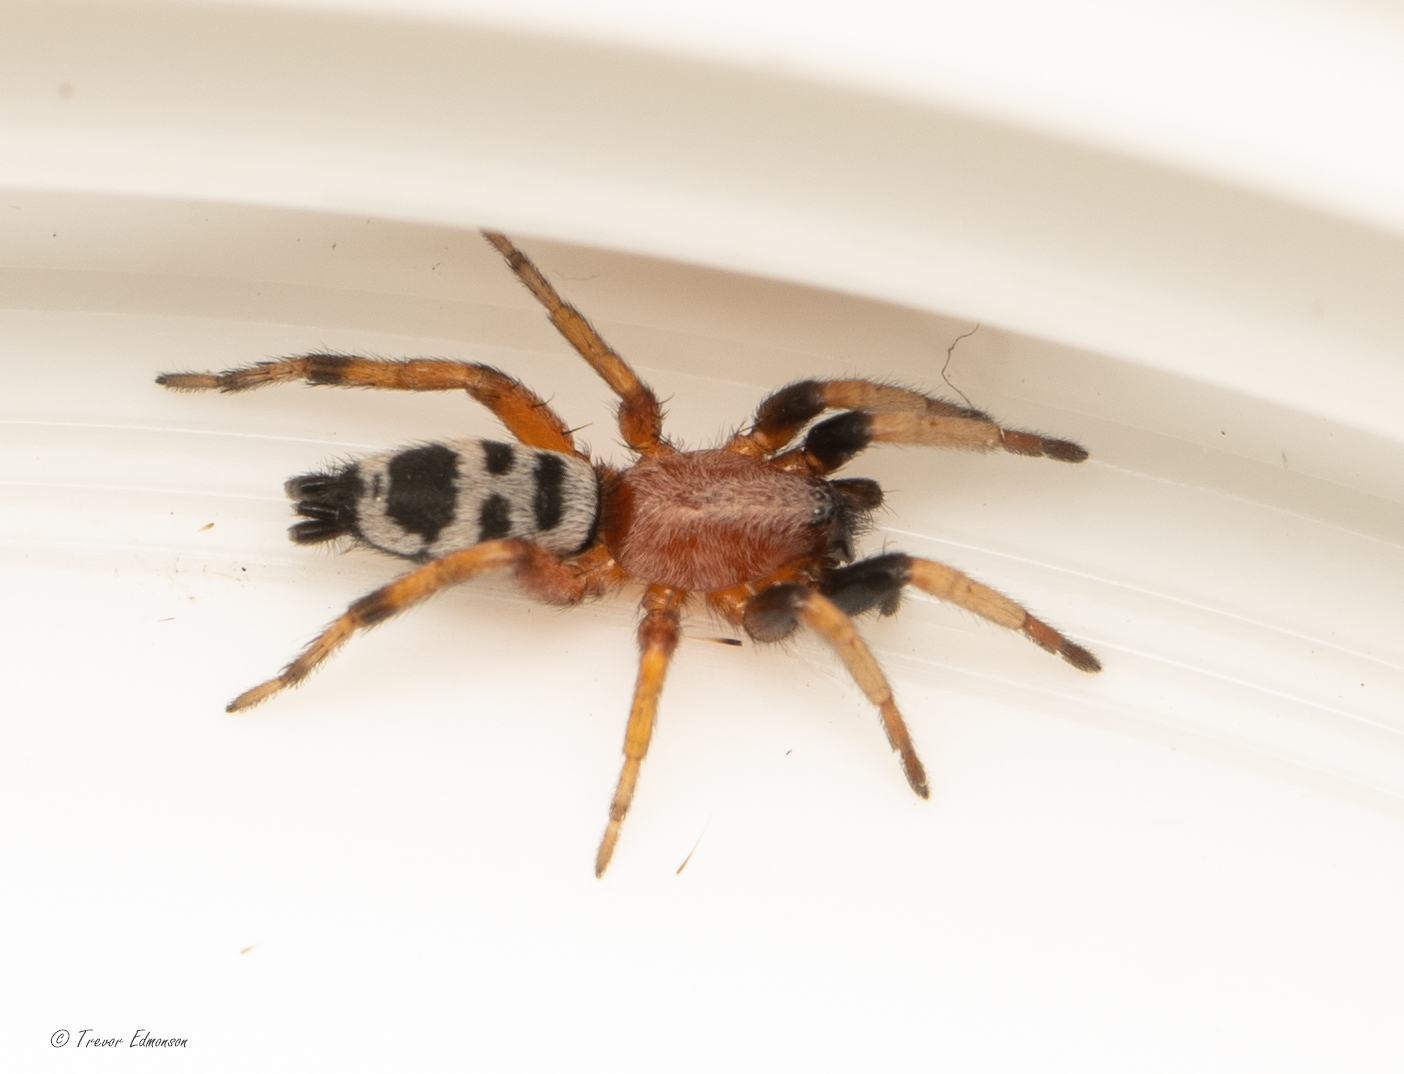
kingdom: Animalia
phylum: Arthropoda
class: Arachnida
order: Araneae
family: Gnaphosidae
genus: Sergiolus
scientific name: Sergiolus decoratus
